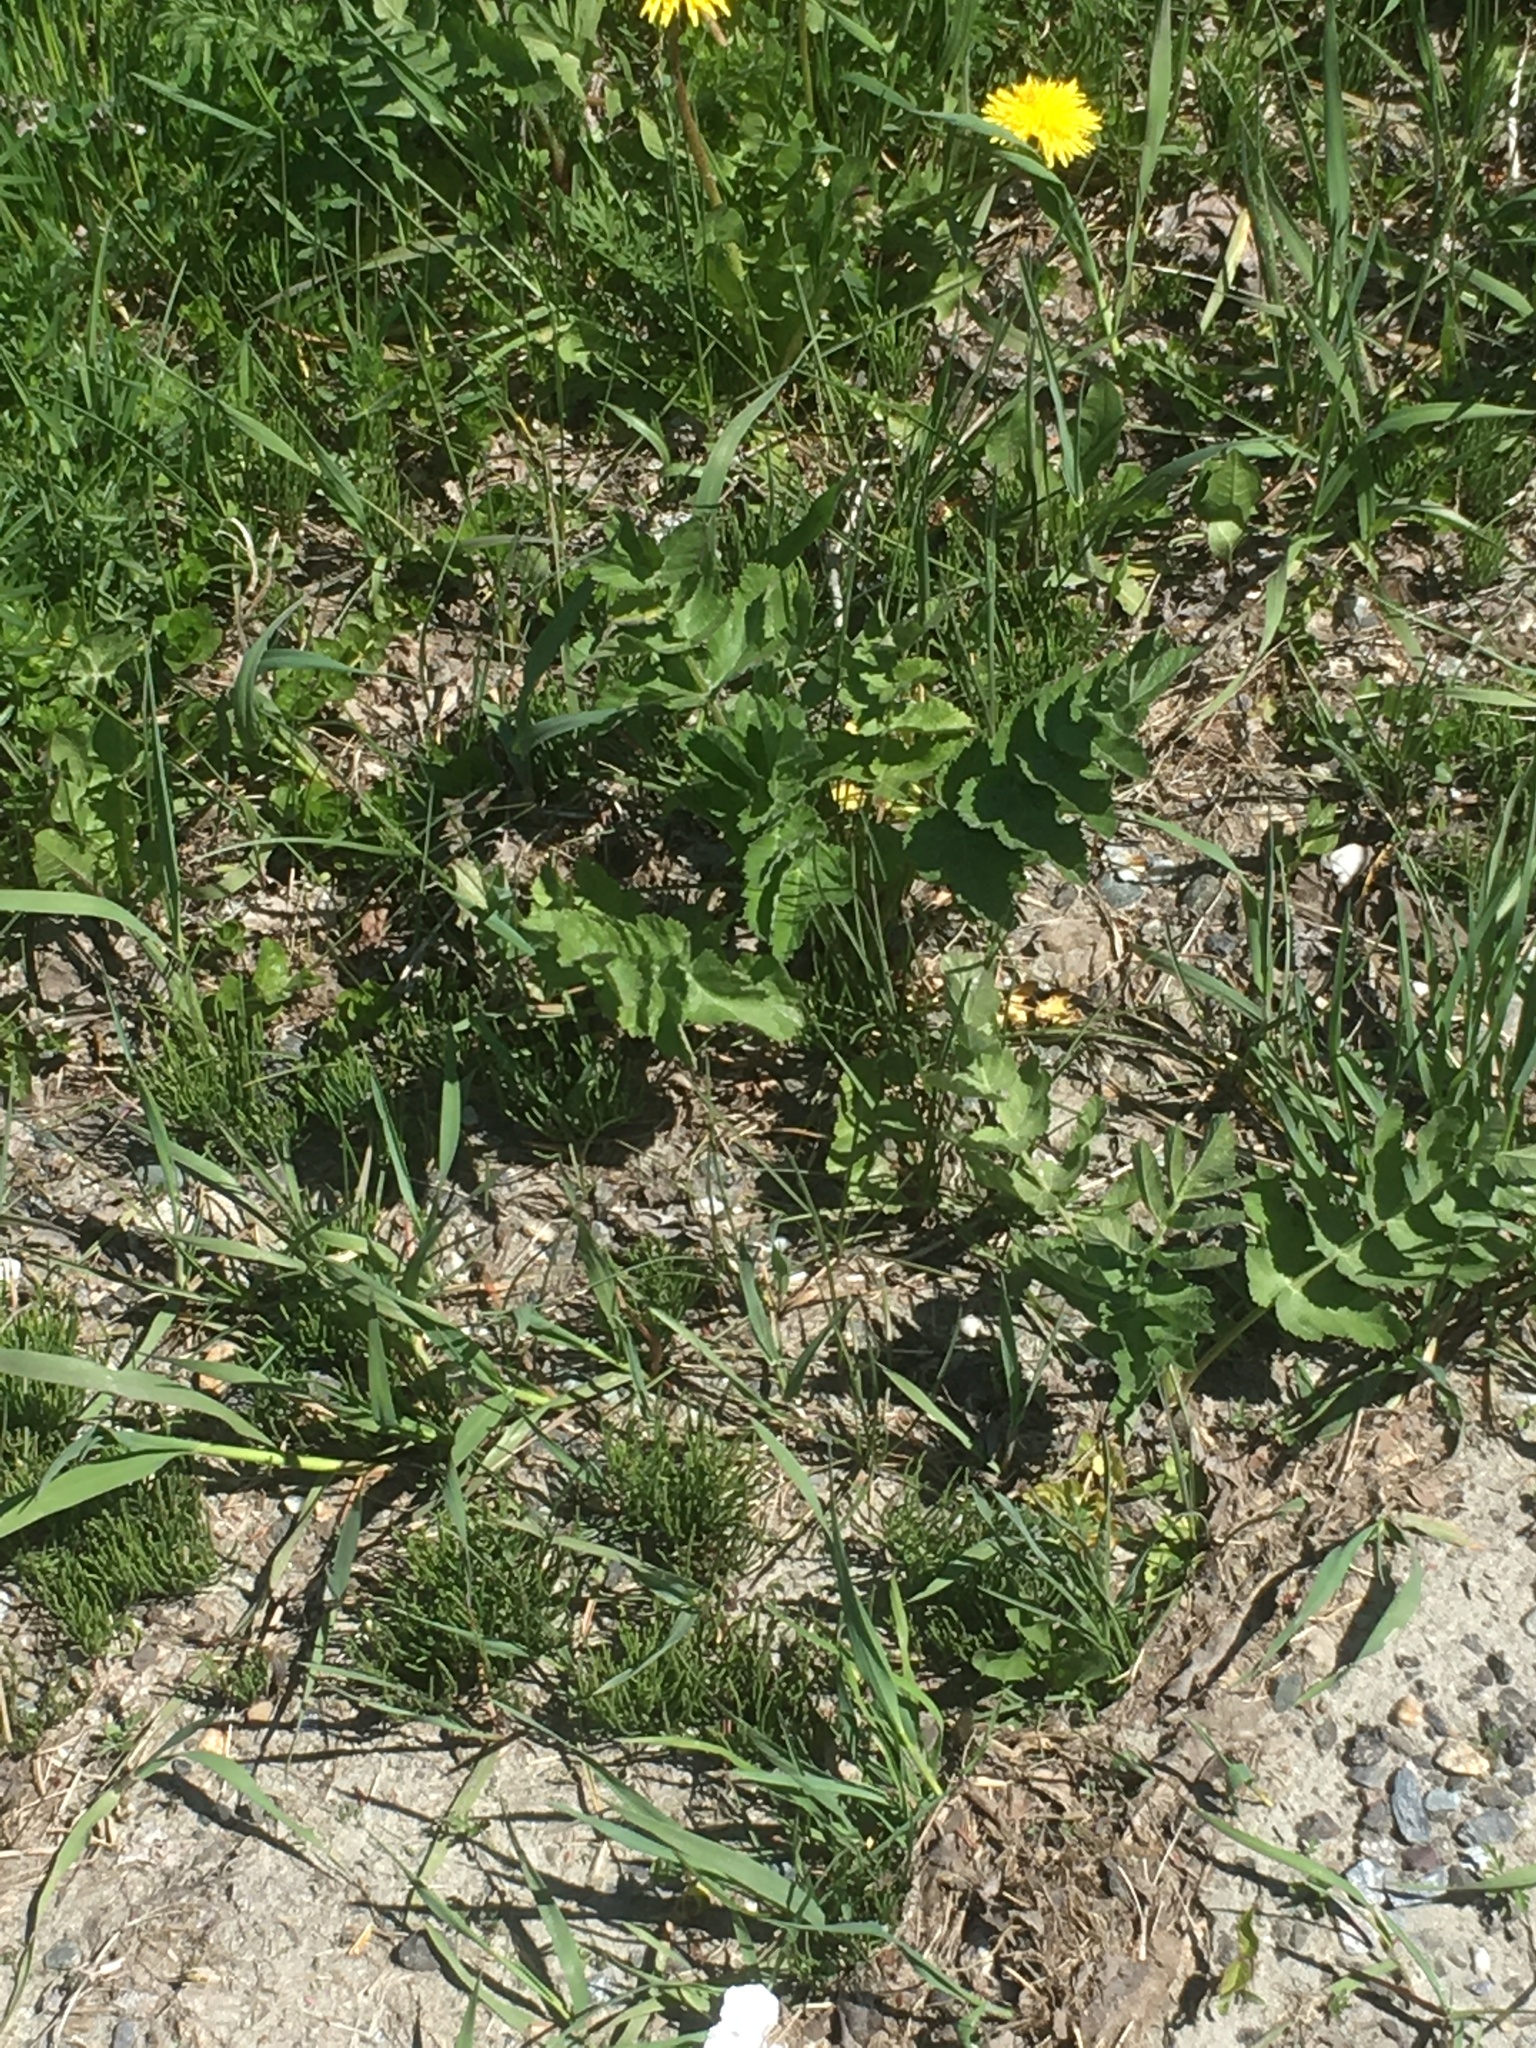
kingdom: Plantae
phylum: Tracheophyta
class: Magnoliopsida
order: Apiales
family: Apiaceae
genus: Pastinaca
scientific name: Pastinaca sativa
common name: Wild parsnip
